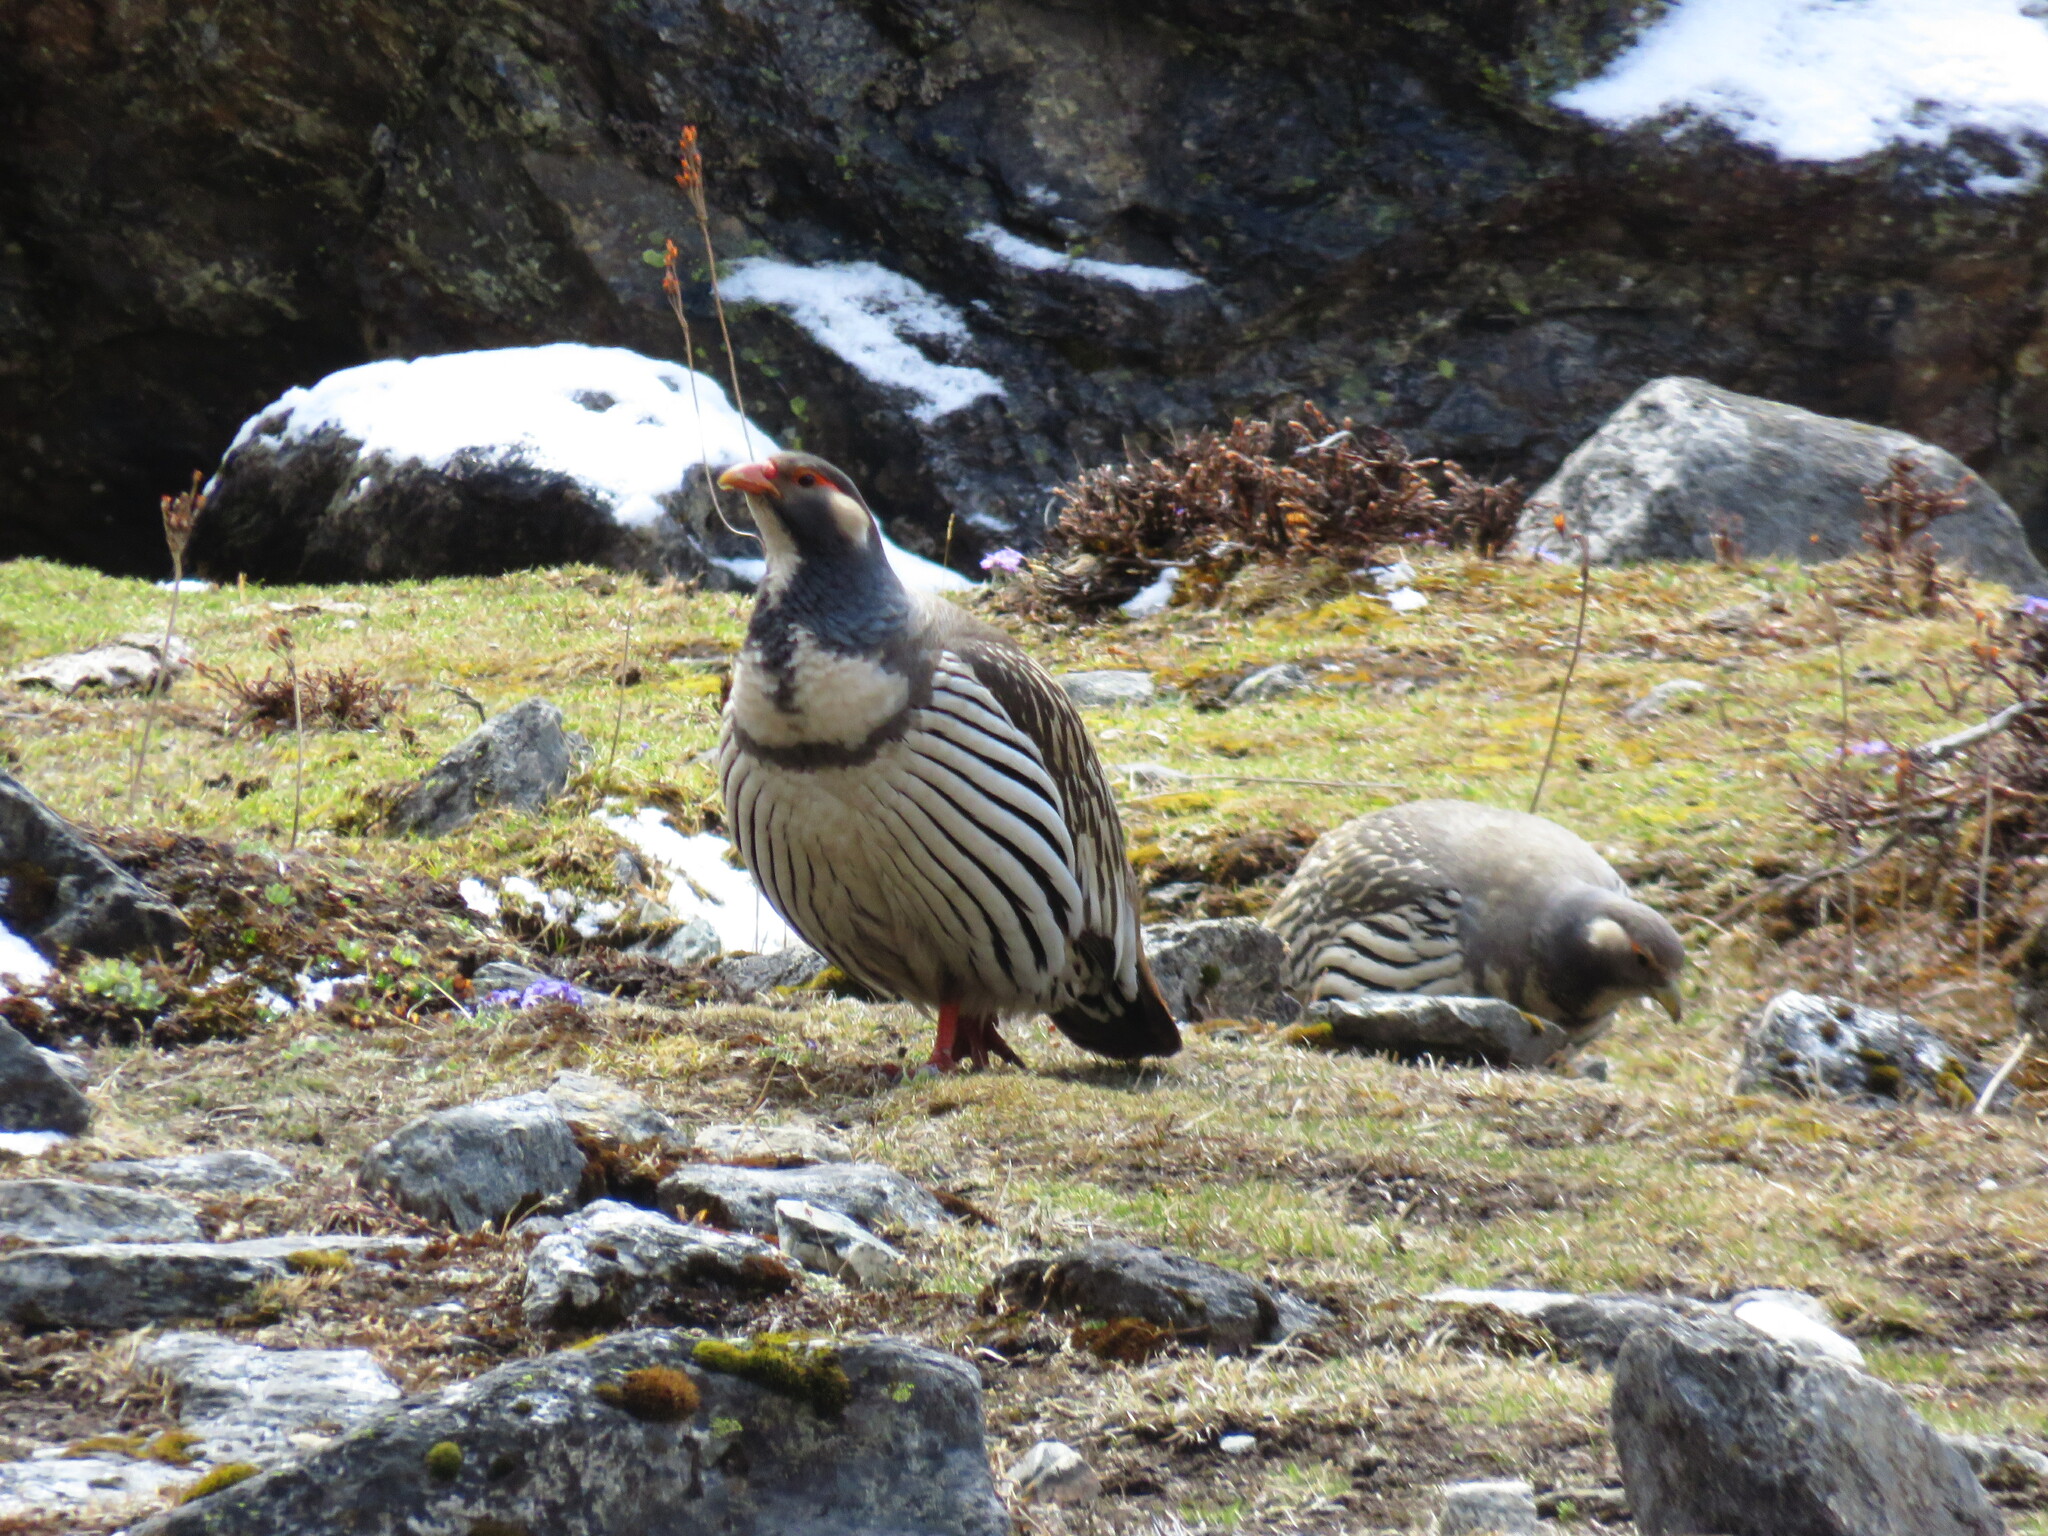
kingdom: Animalia
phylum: Chordata
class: Aves
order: Galliformes
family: Phasianidae
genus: Tetraogallus
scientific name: Tetraogallus tibetanus
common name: Tibetan snowcock
